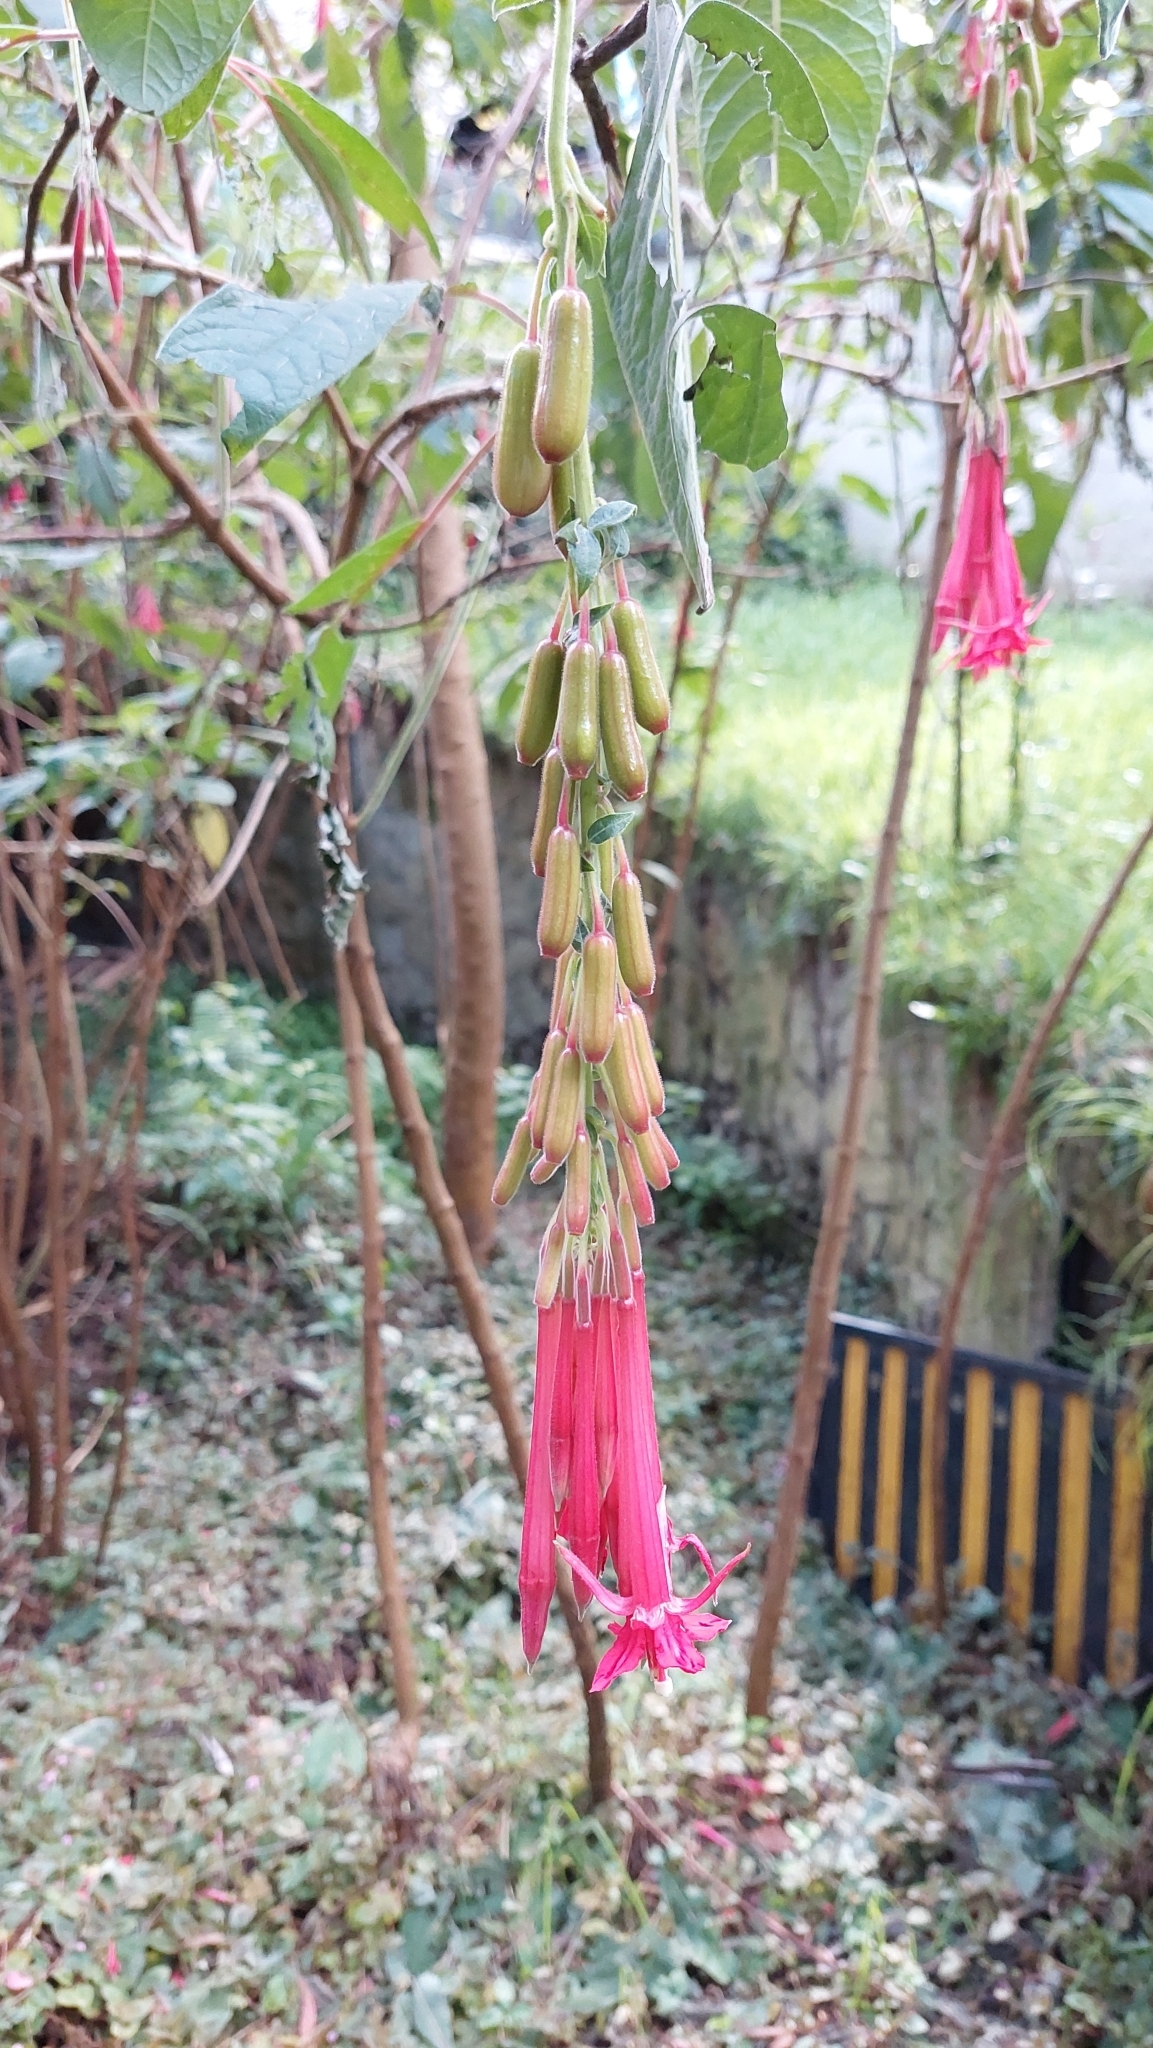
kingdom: Plantae
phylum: Tracheophyta
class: Magnoliopsida
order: Myrtales
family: Onagraceae
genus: Fuchsia
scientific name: Fuchsia boliviana
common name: Bolivian fuchsia
